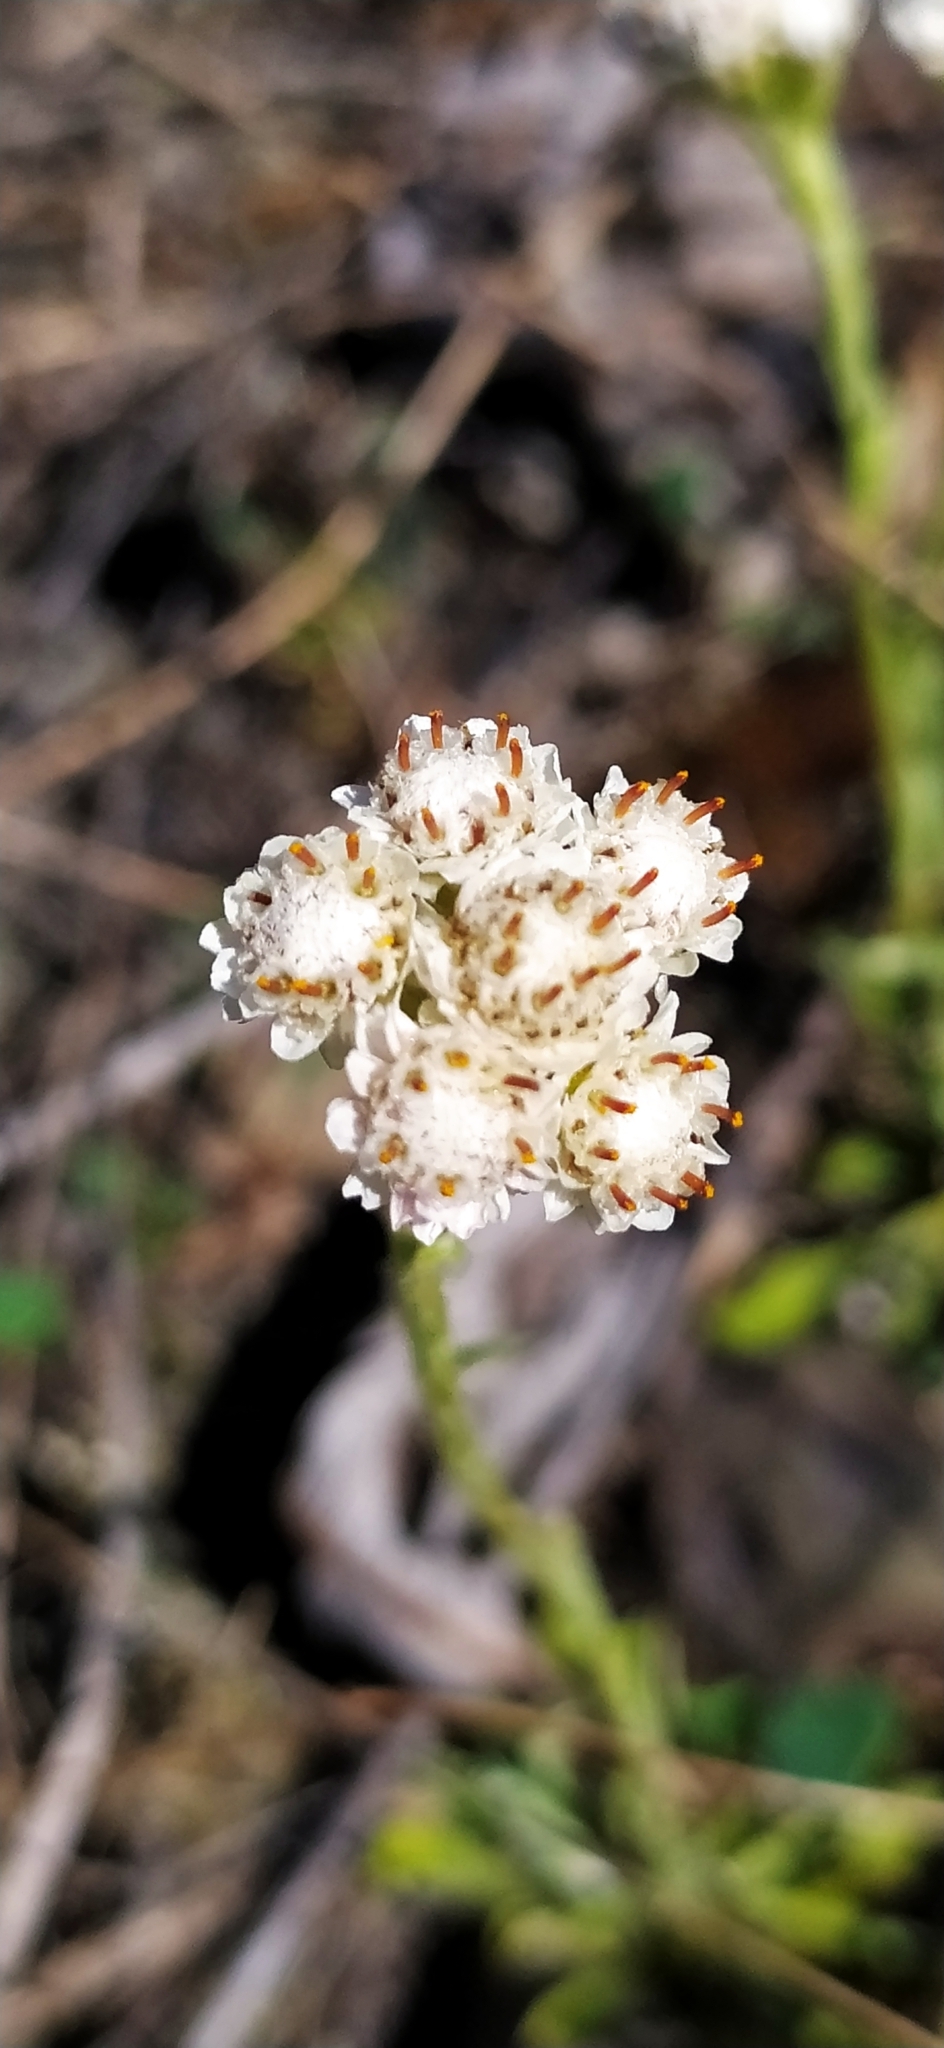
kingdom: Plantae
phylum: Tracheophyta
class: Magnoliopsida
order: Asterales
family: Asteraceae
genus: Antennaria
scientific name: Antennaria dioica
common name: Mountain everlasting
